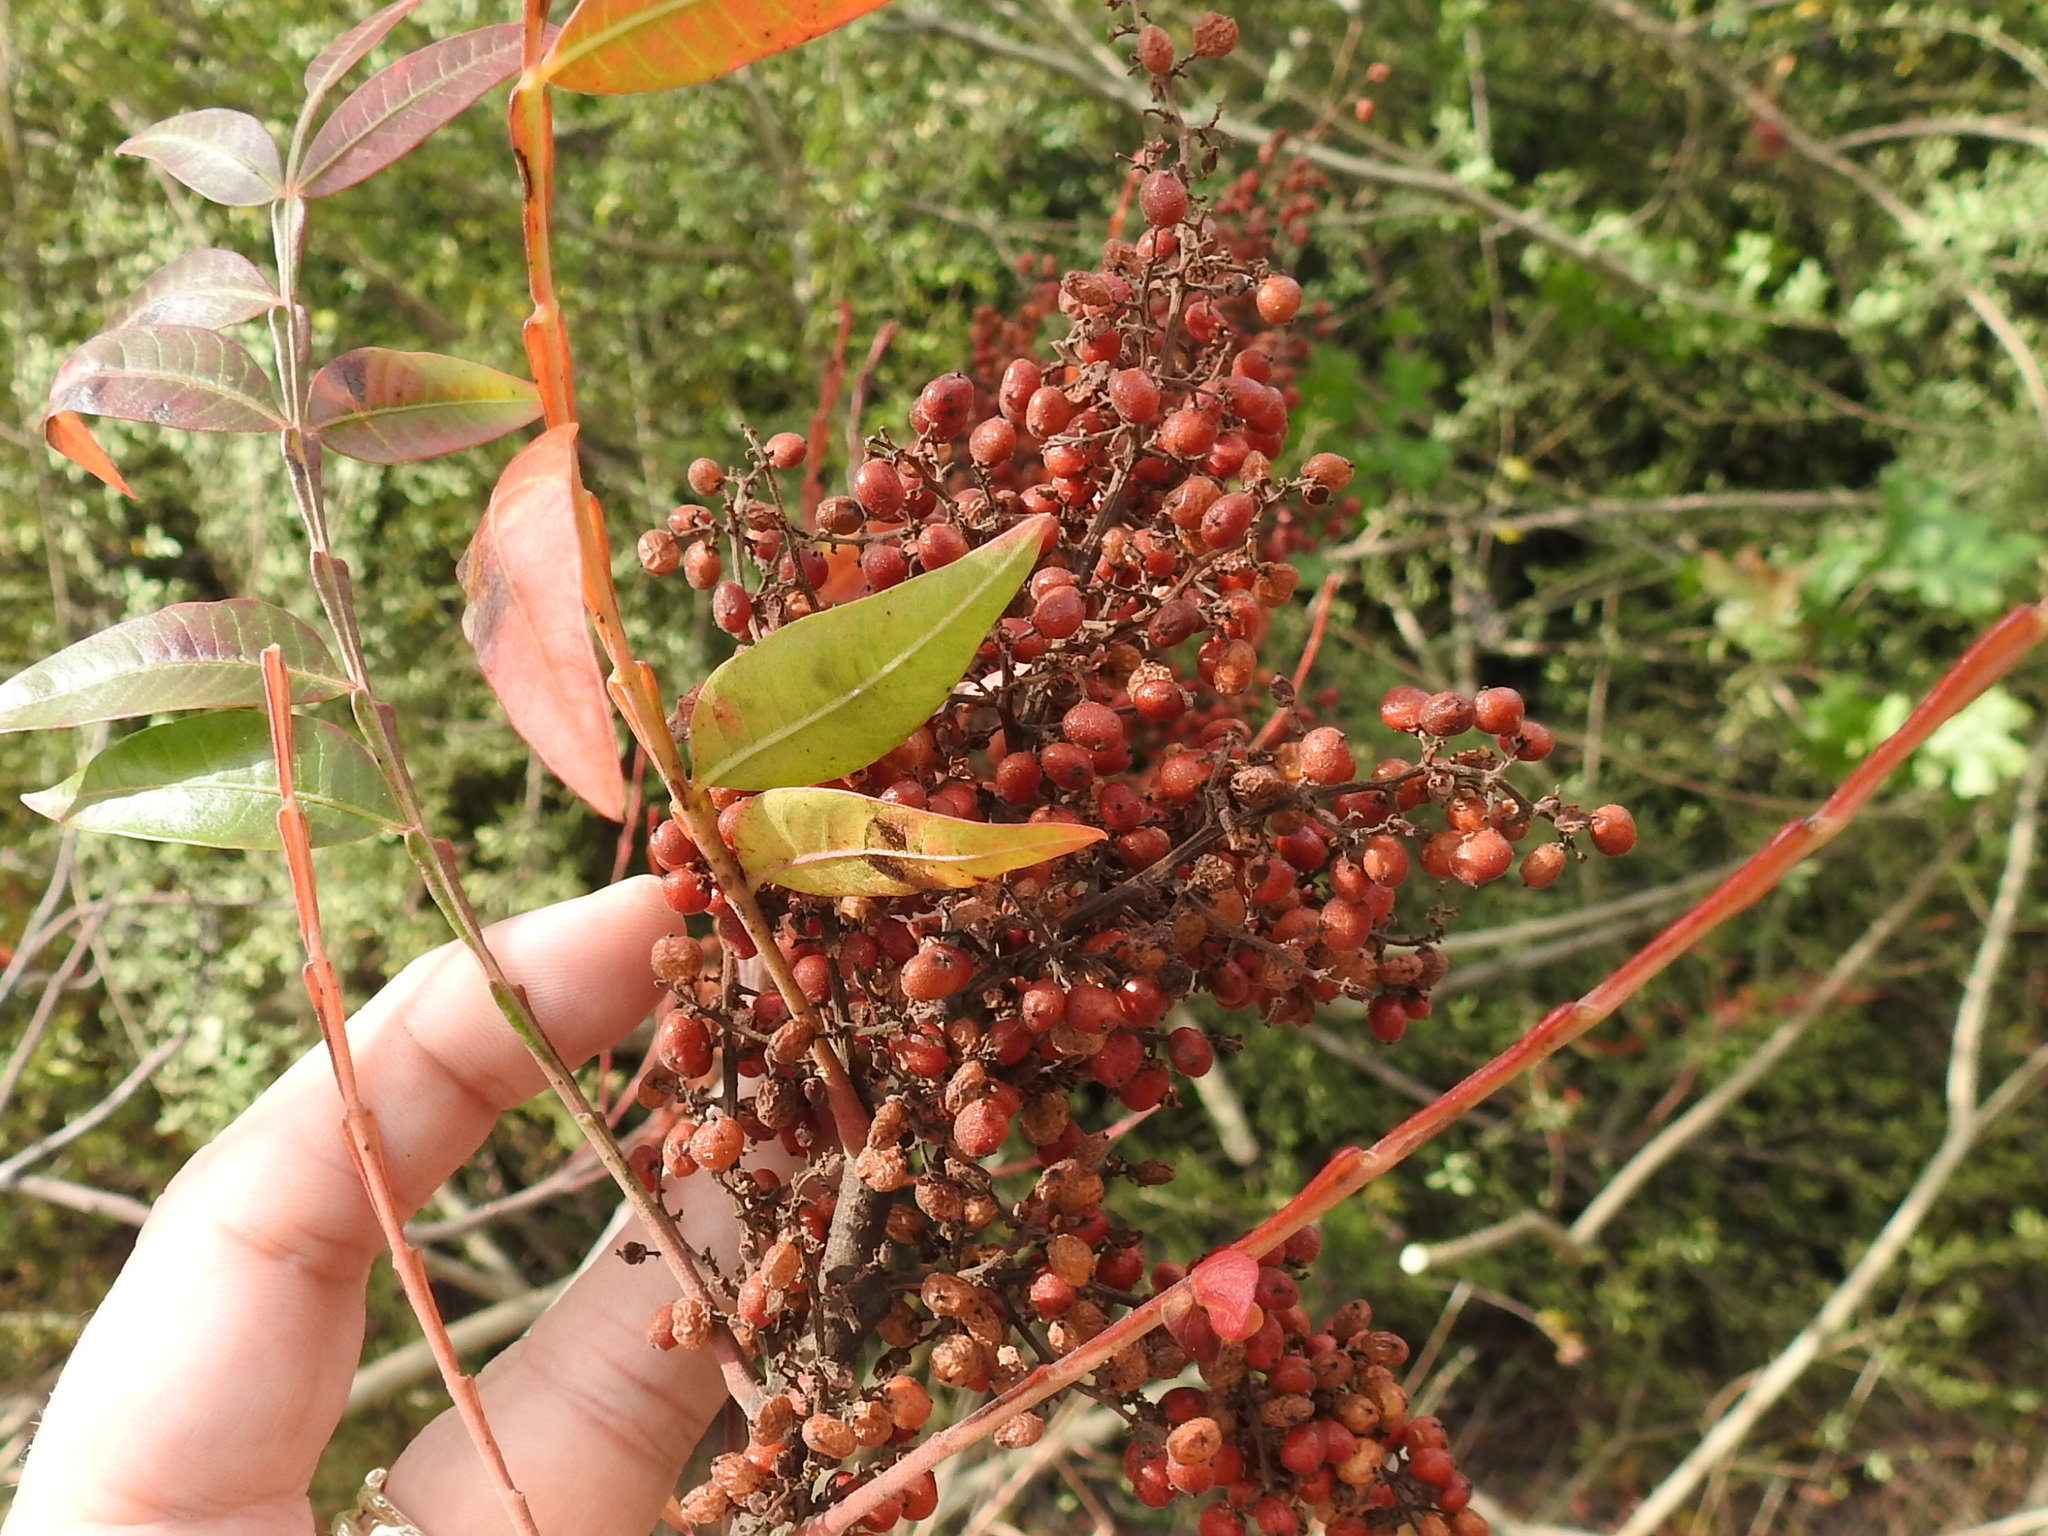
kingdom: Plantae
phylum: Tracheophyta
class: Magnoliopsida
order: Sapindales
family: Anacardiaceae
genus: Rhus
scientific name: Rhus copallina
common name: Shining sumac
